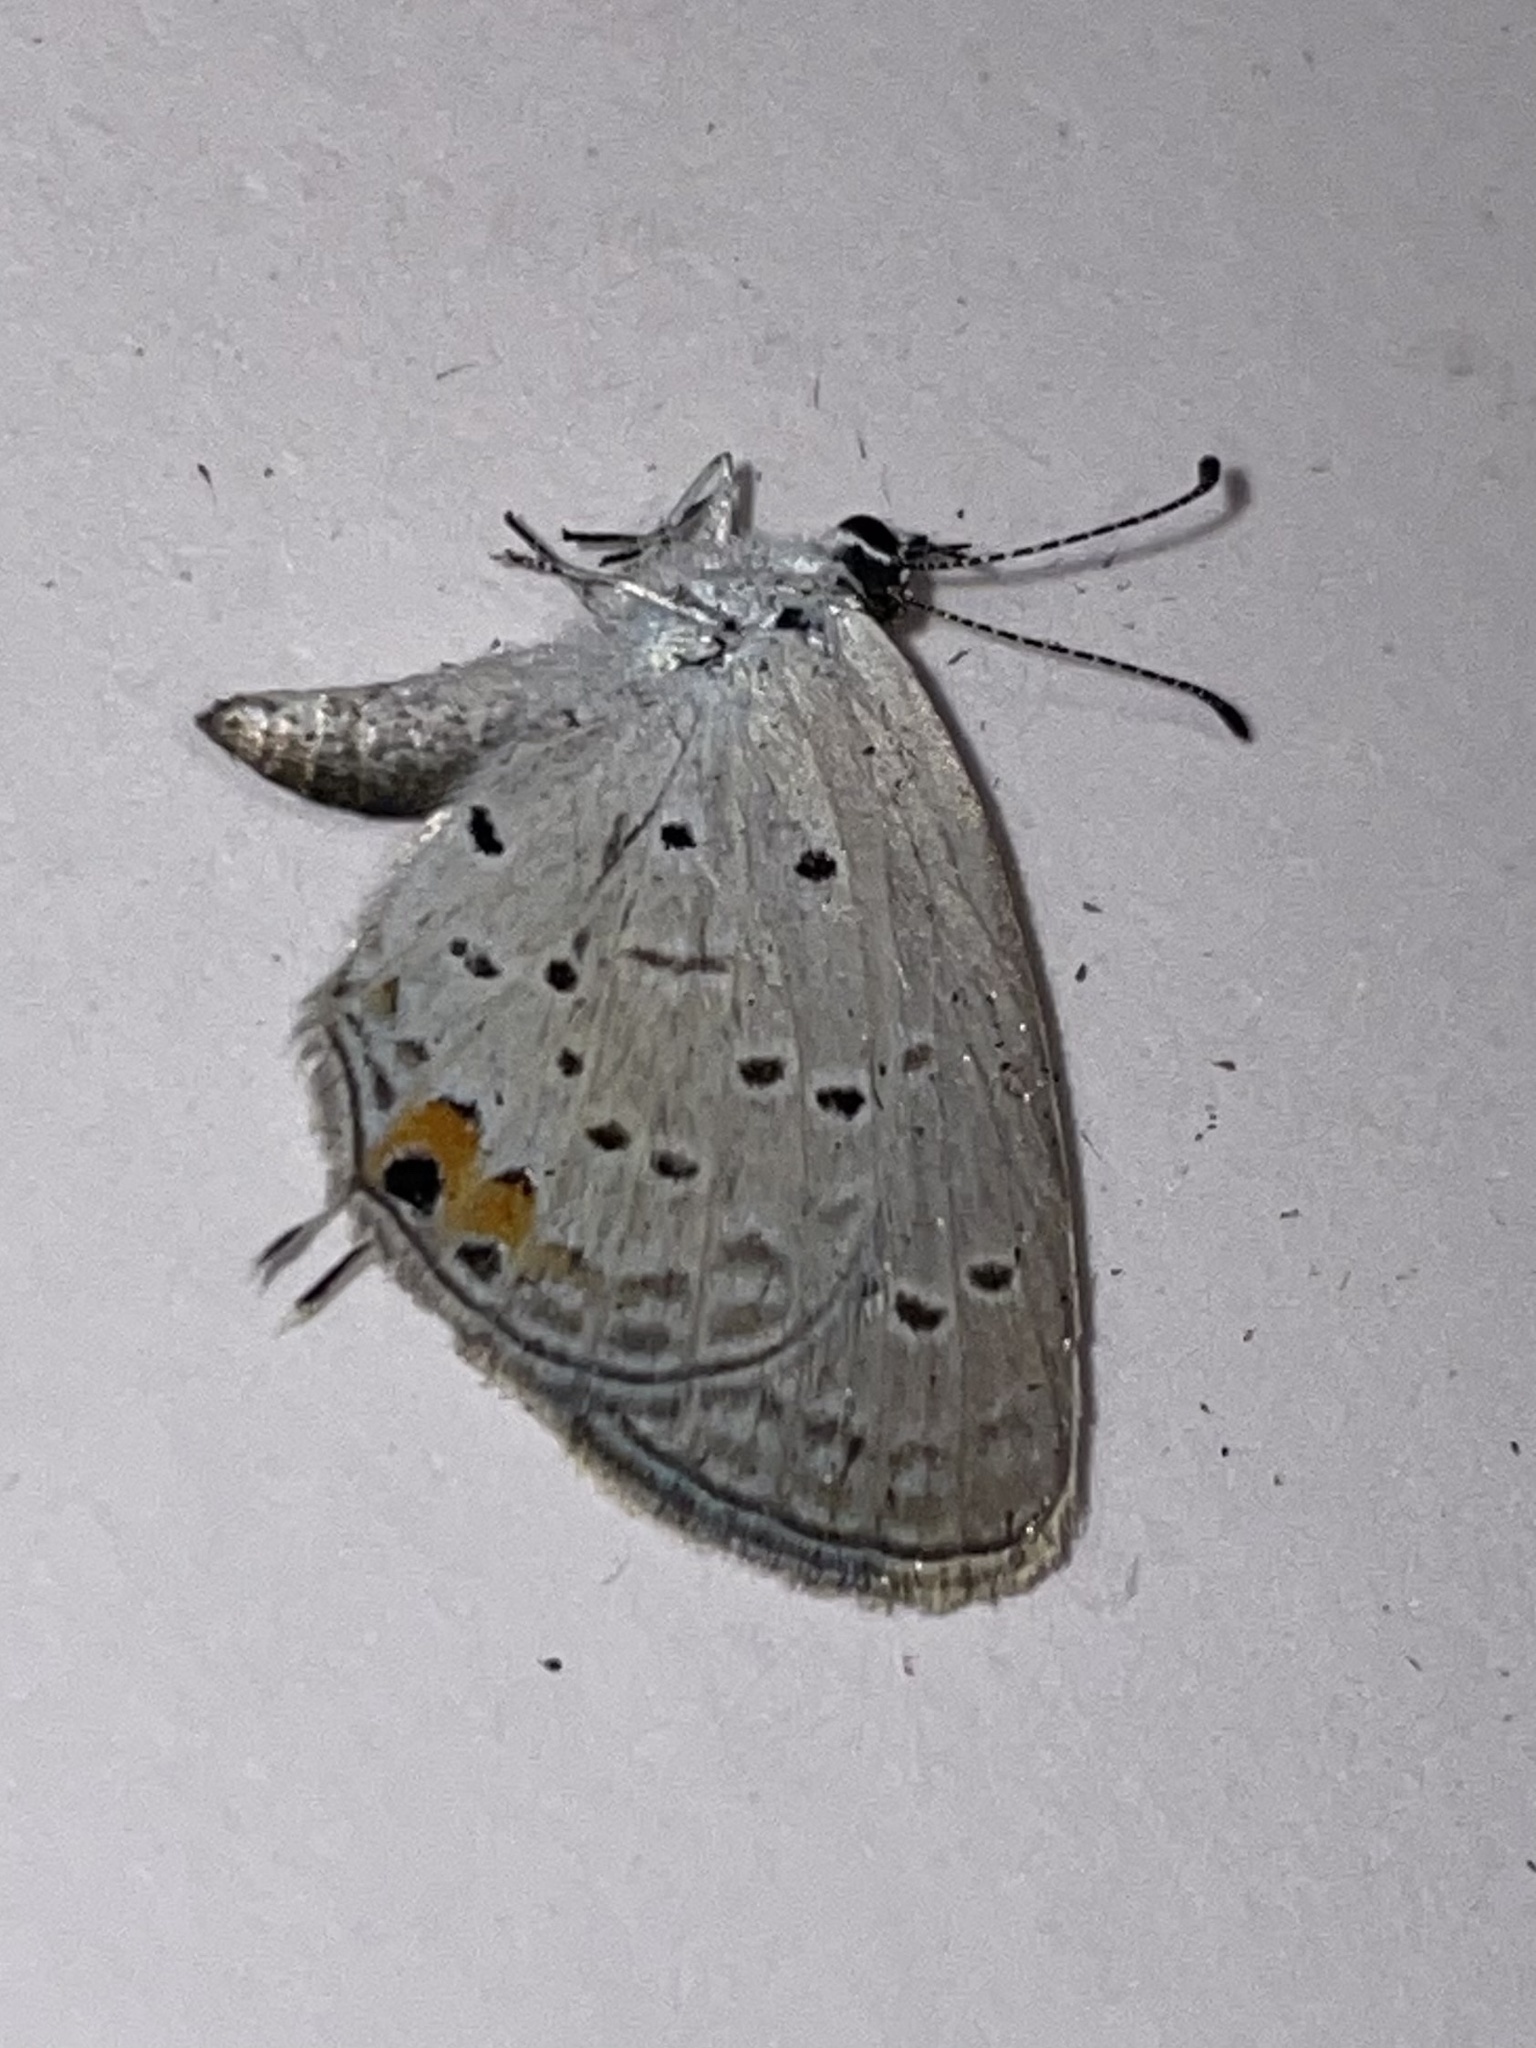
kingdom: Animalia
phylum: Arthropoda
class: Insecta
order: Lepidoptera
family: Lycaenidae
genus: Elkalyce
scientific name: Elkalyce comyntas
